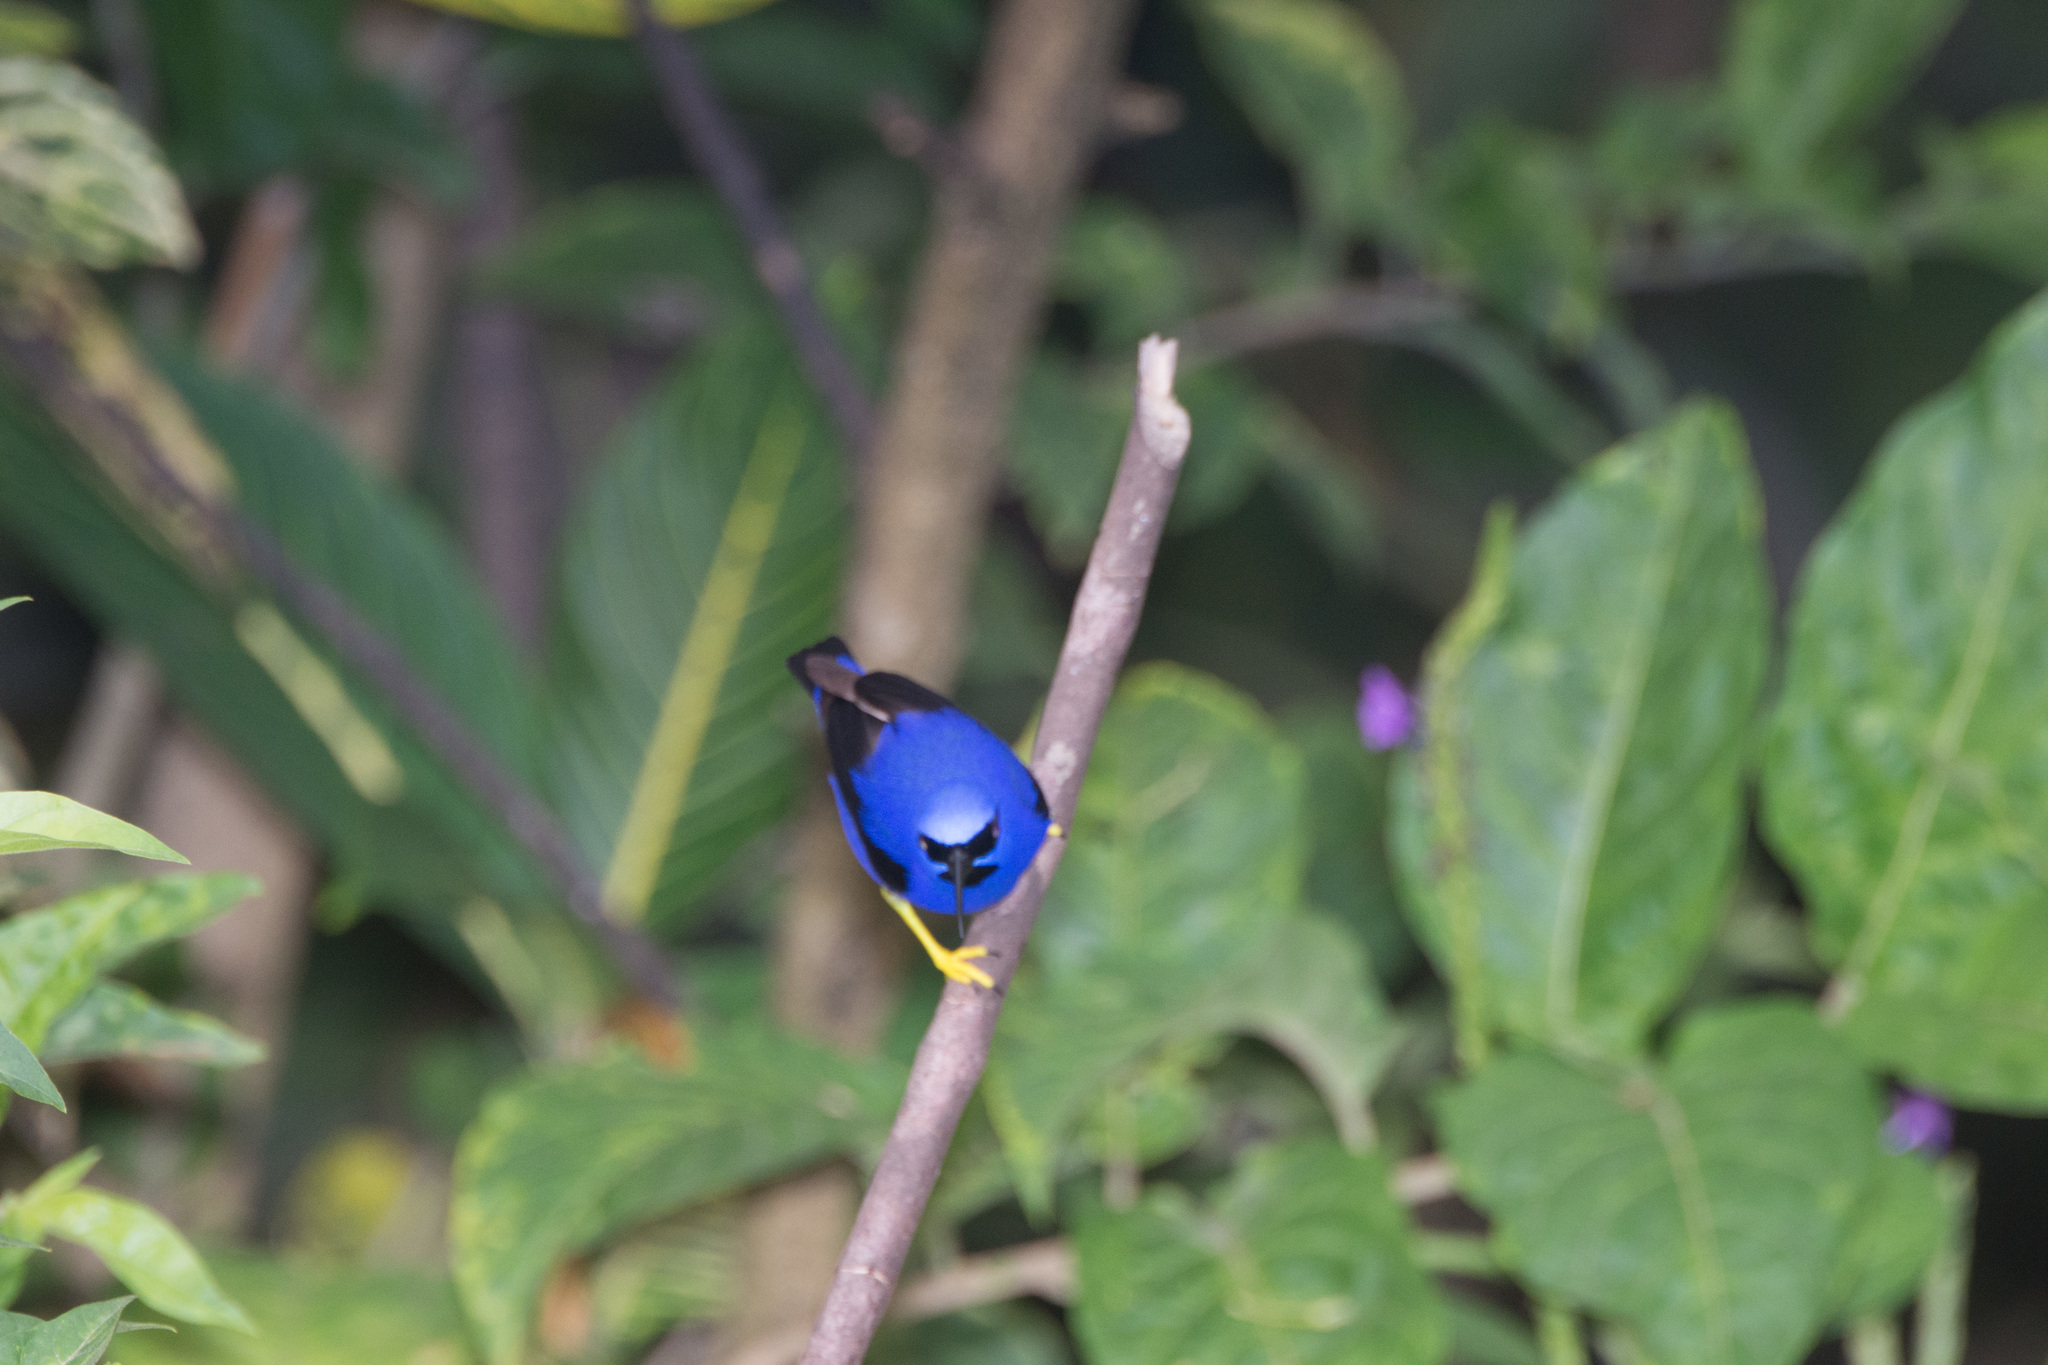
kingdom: Animalia
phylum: Chordata
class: Aves
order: Passeriformes
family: Thraupidae
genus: Cyanerpes
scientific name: Cyanerpes caeruleus
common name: Purple honeycreeper
